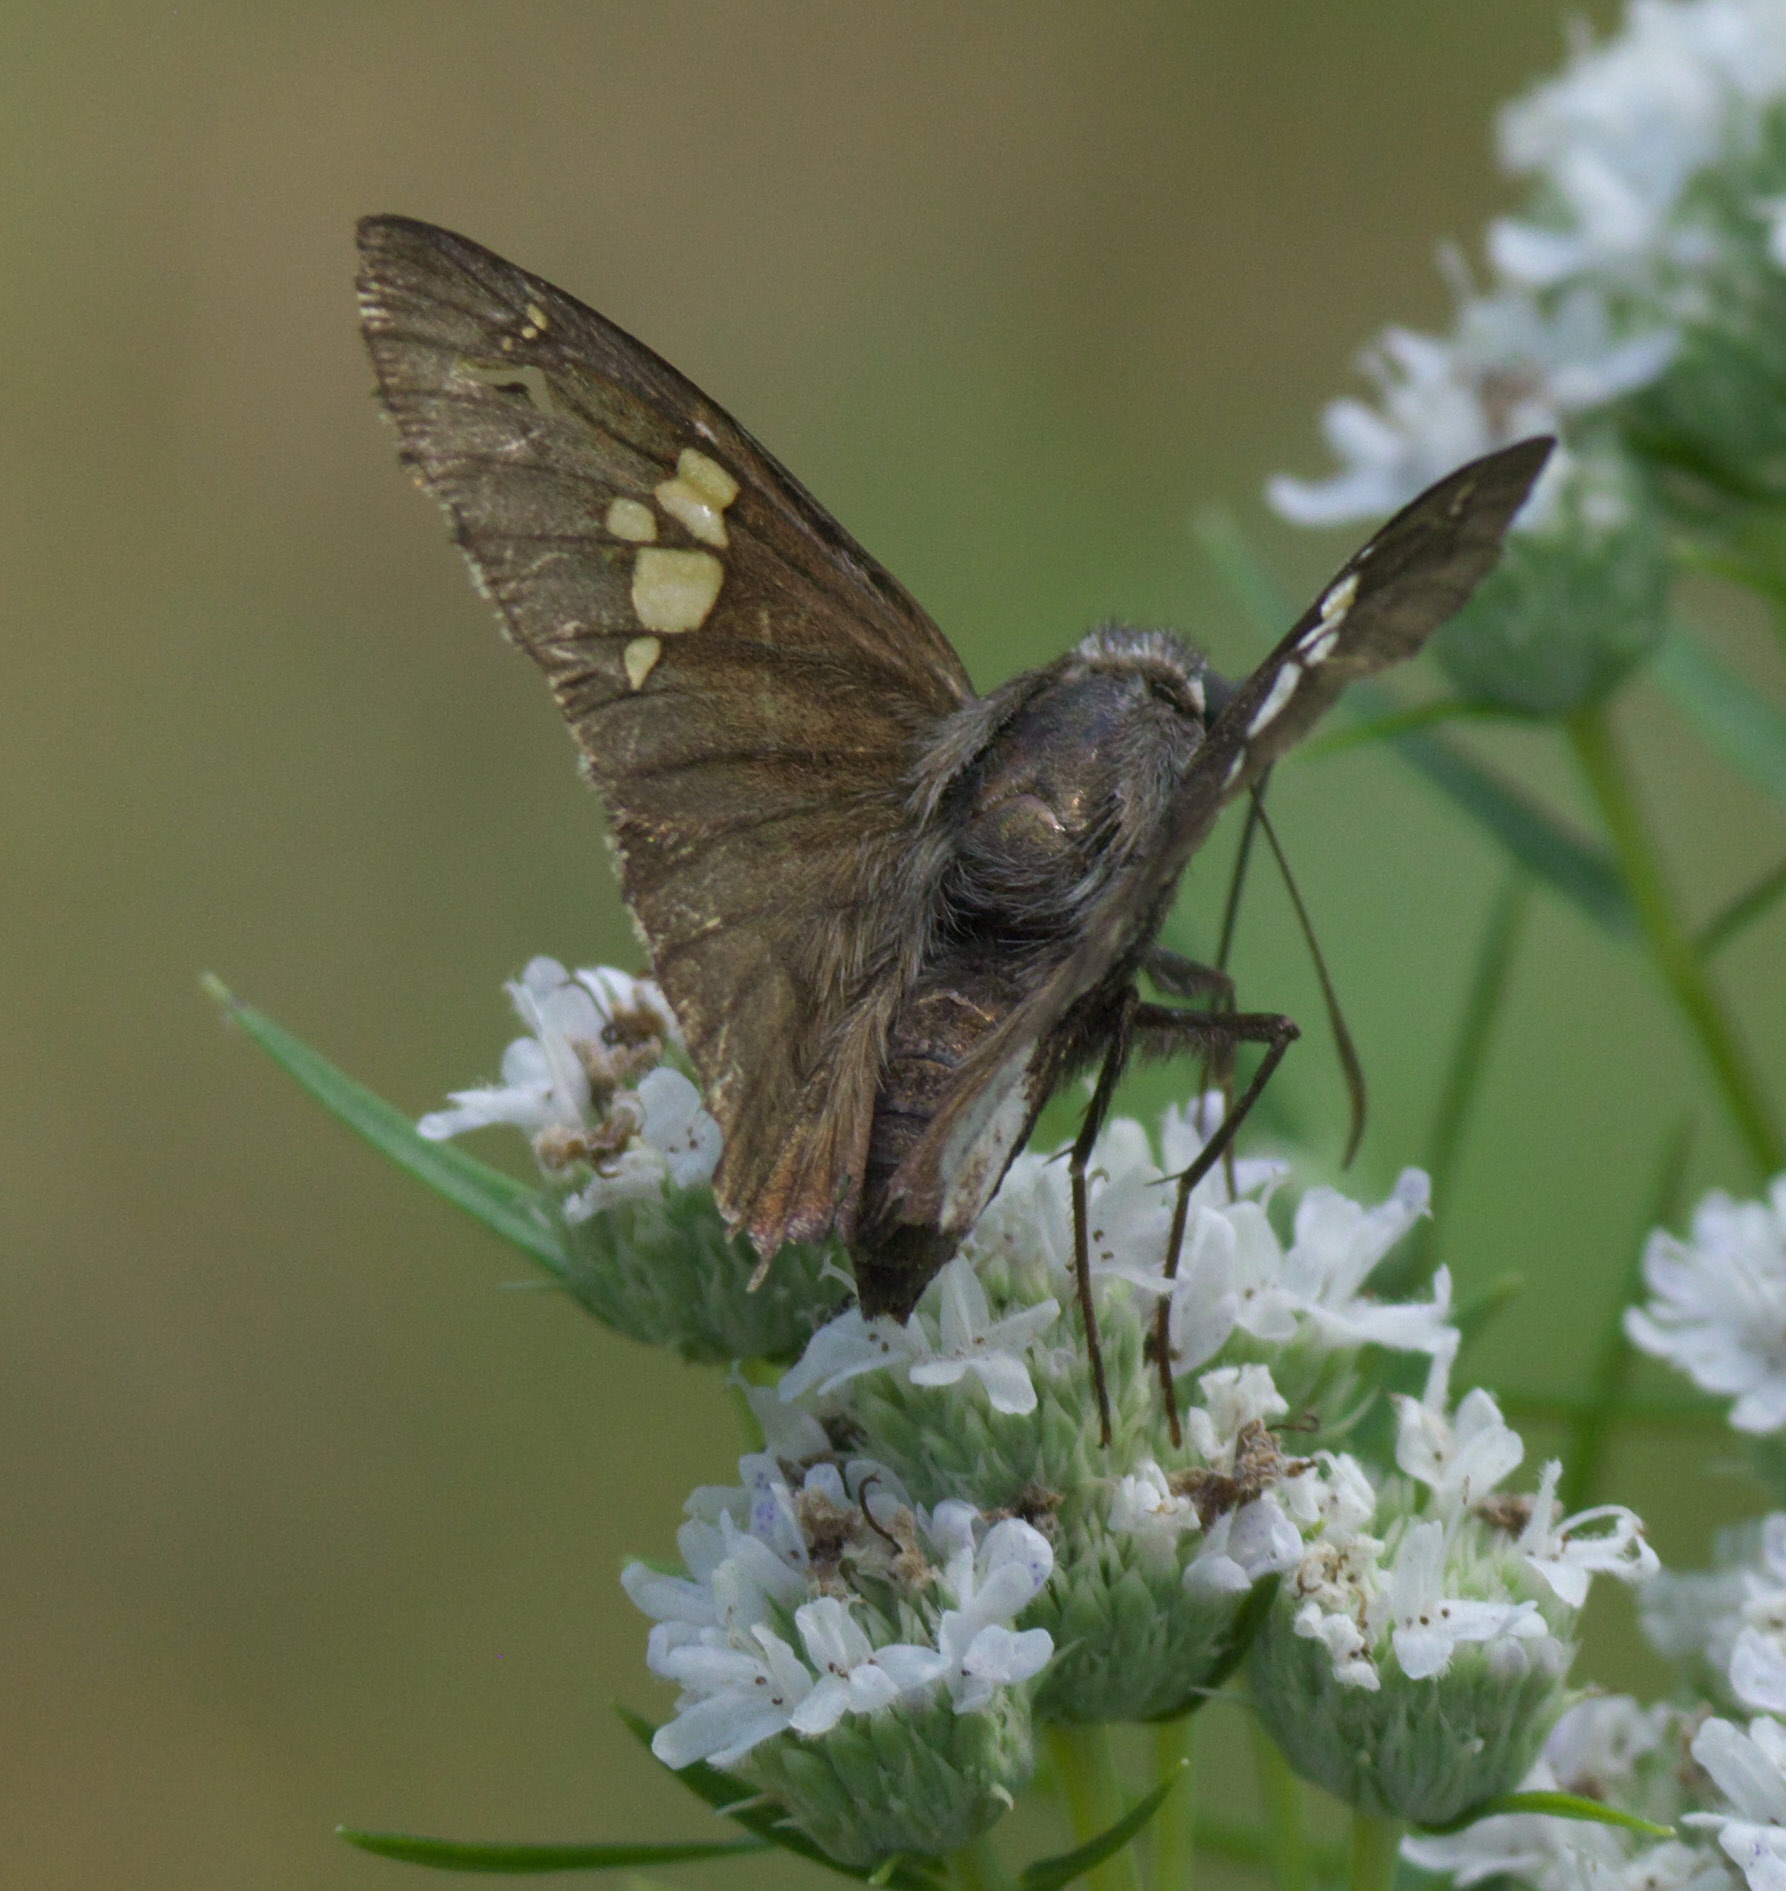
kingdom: Animalia
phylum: Arthropoda
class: Insecta
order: Lepidoptera
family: Hesperiidae
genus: Thorybes
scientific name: Thorybes lyciades
